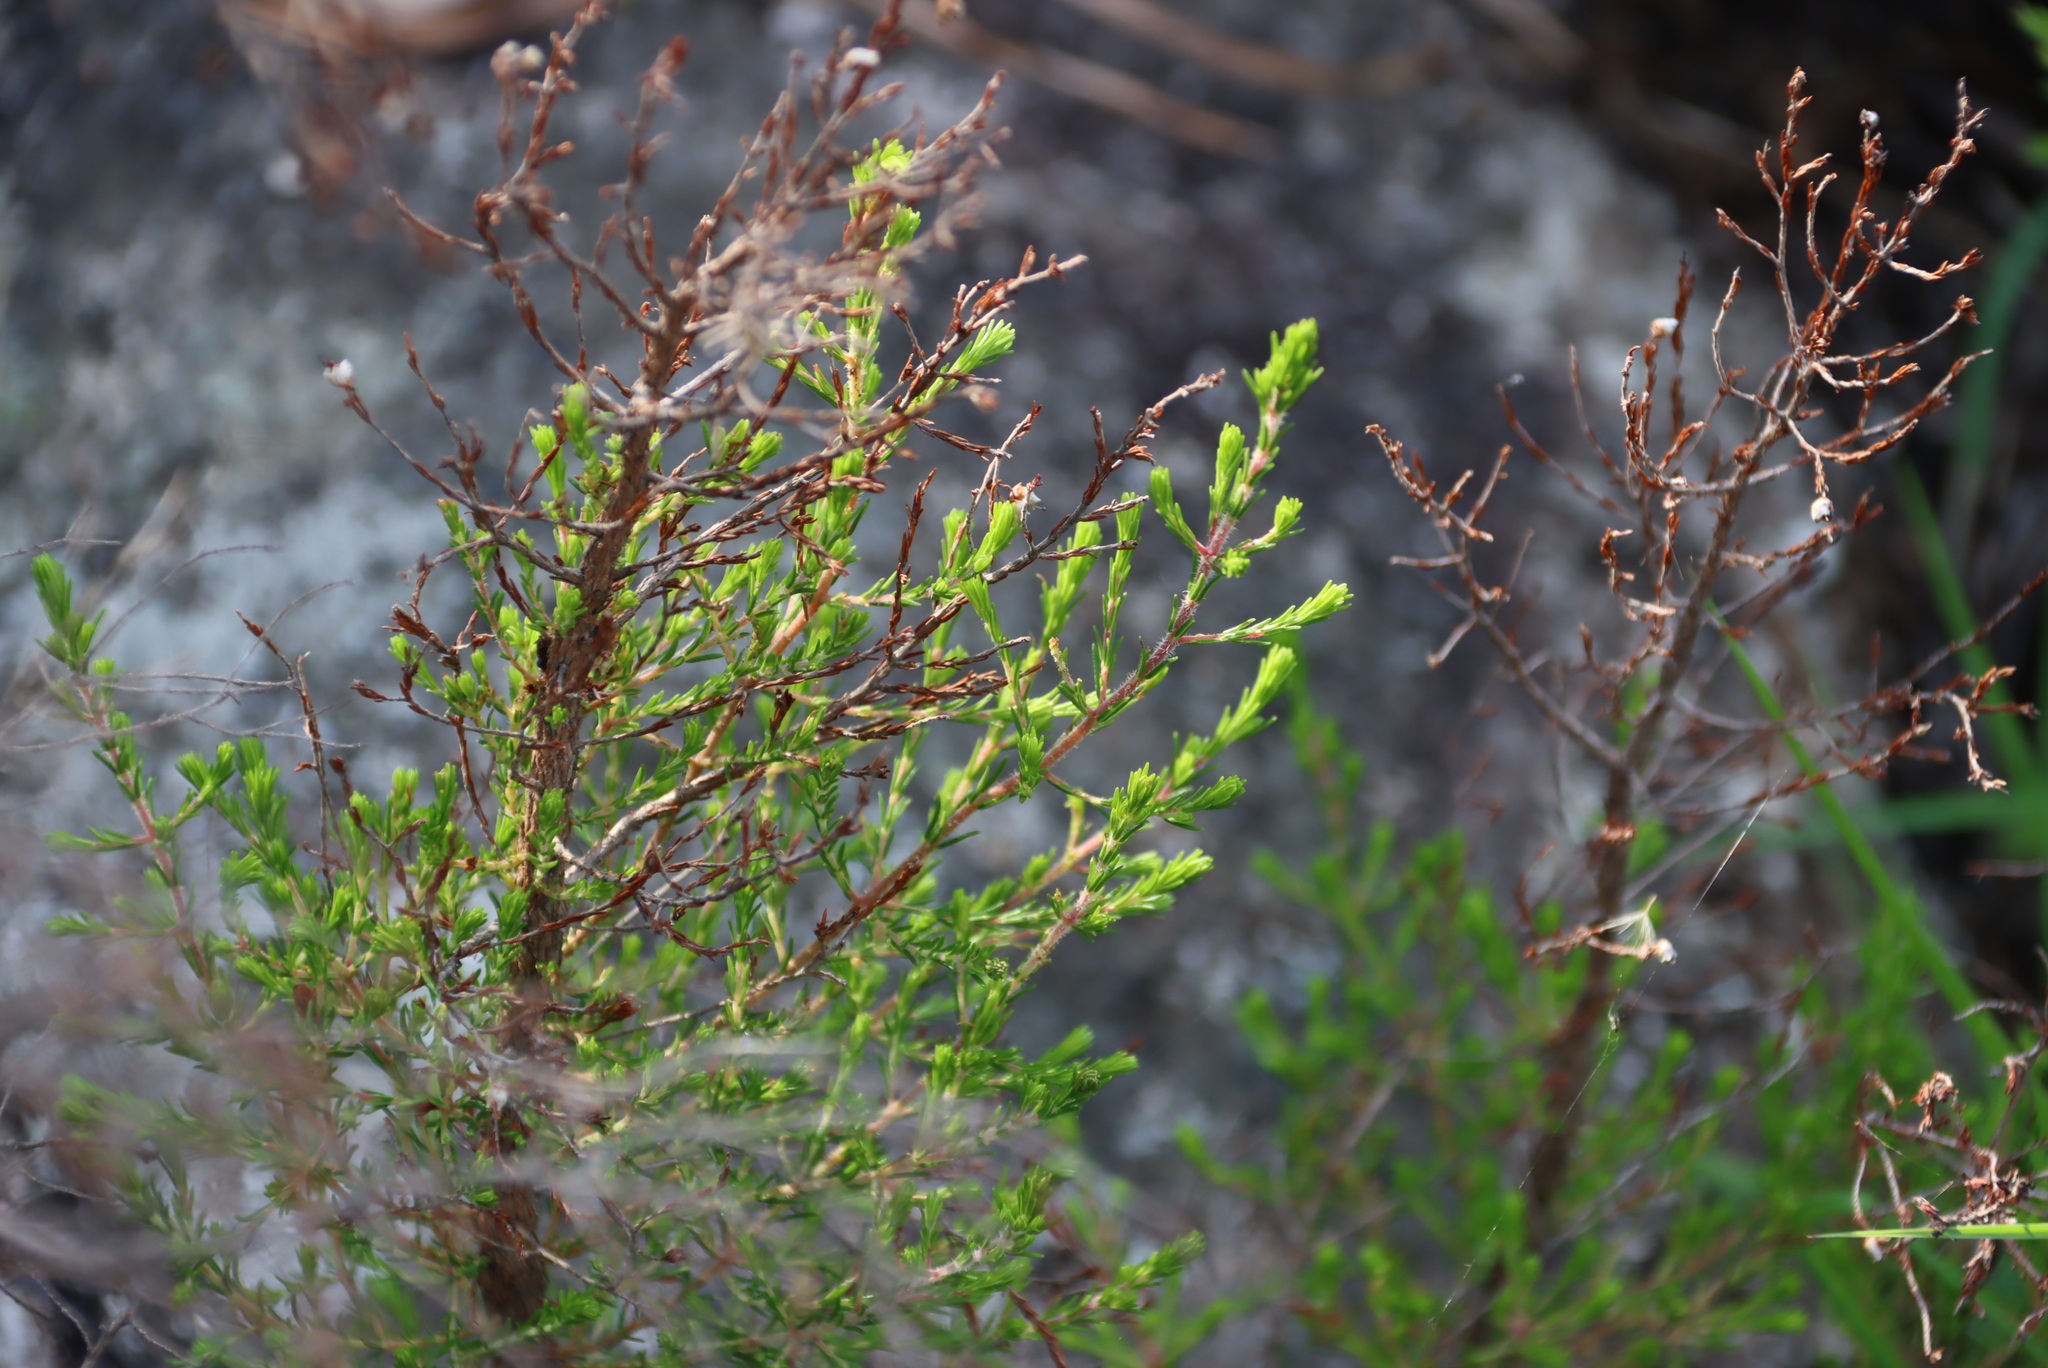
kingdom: Plantae
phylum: Tracheophyta
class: Magnoliopsida
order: Ericales
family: Ericaceae
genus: Erica
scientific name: Erica drakensbergensis
